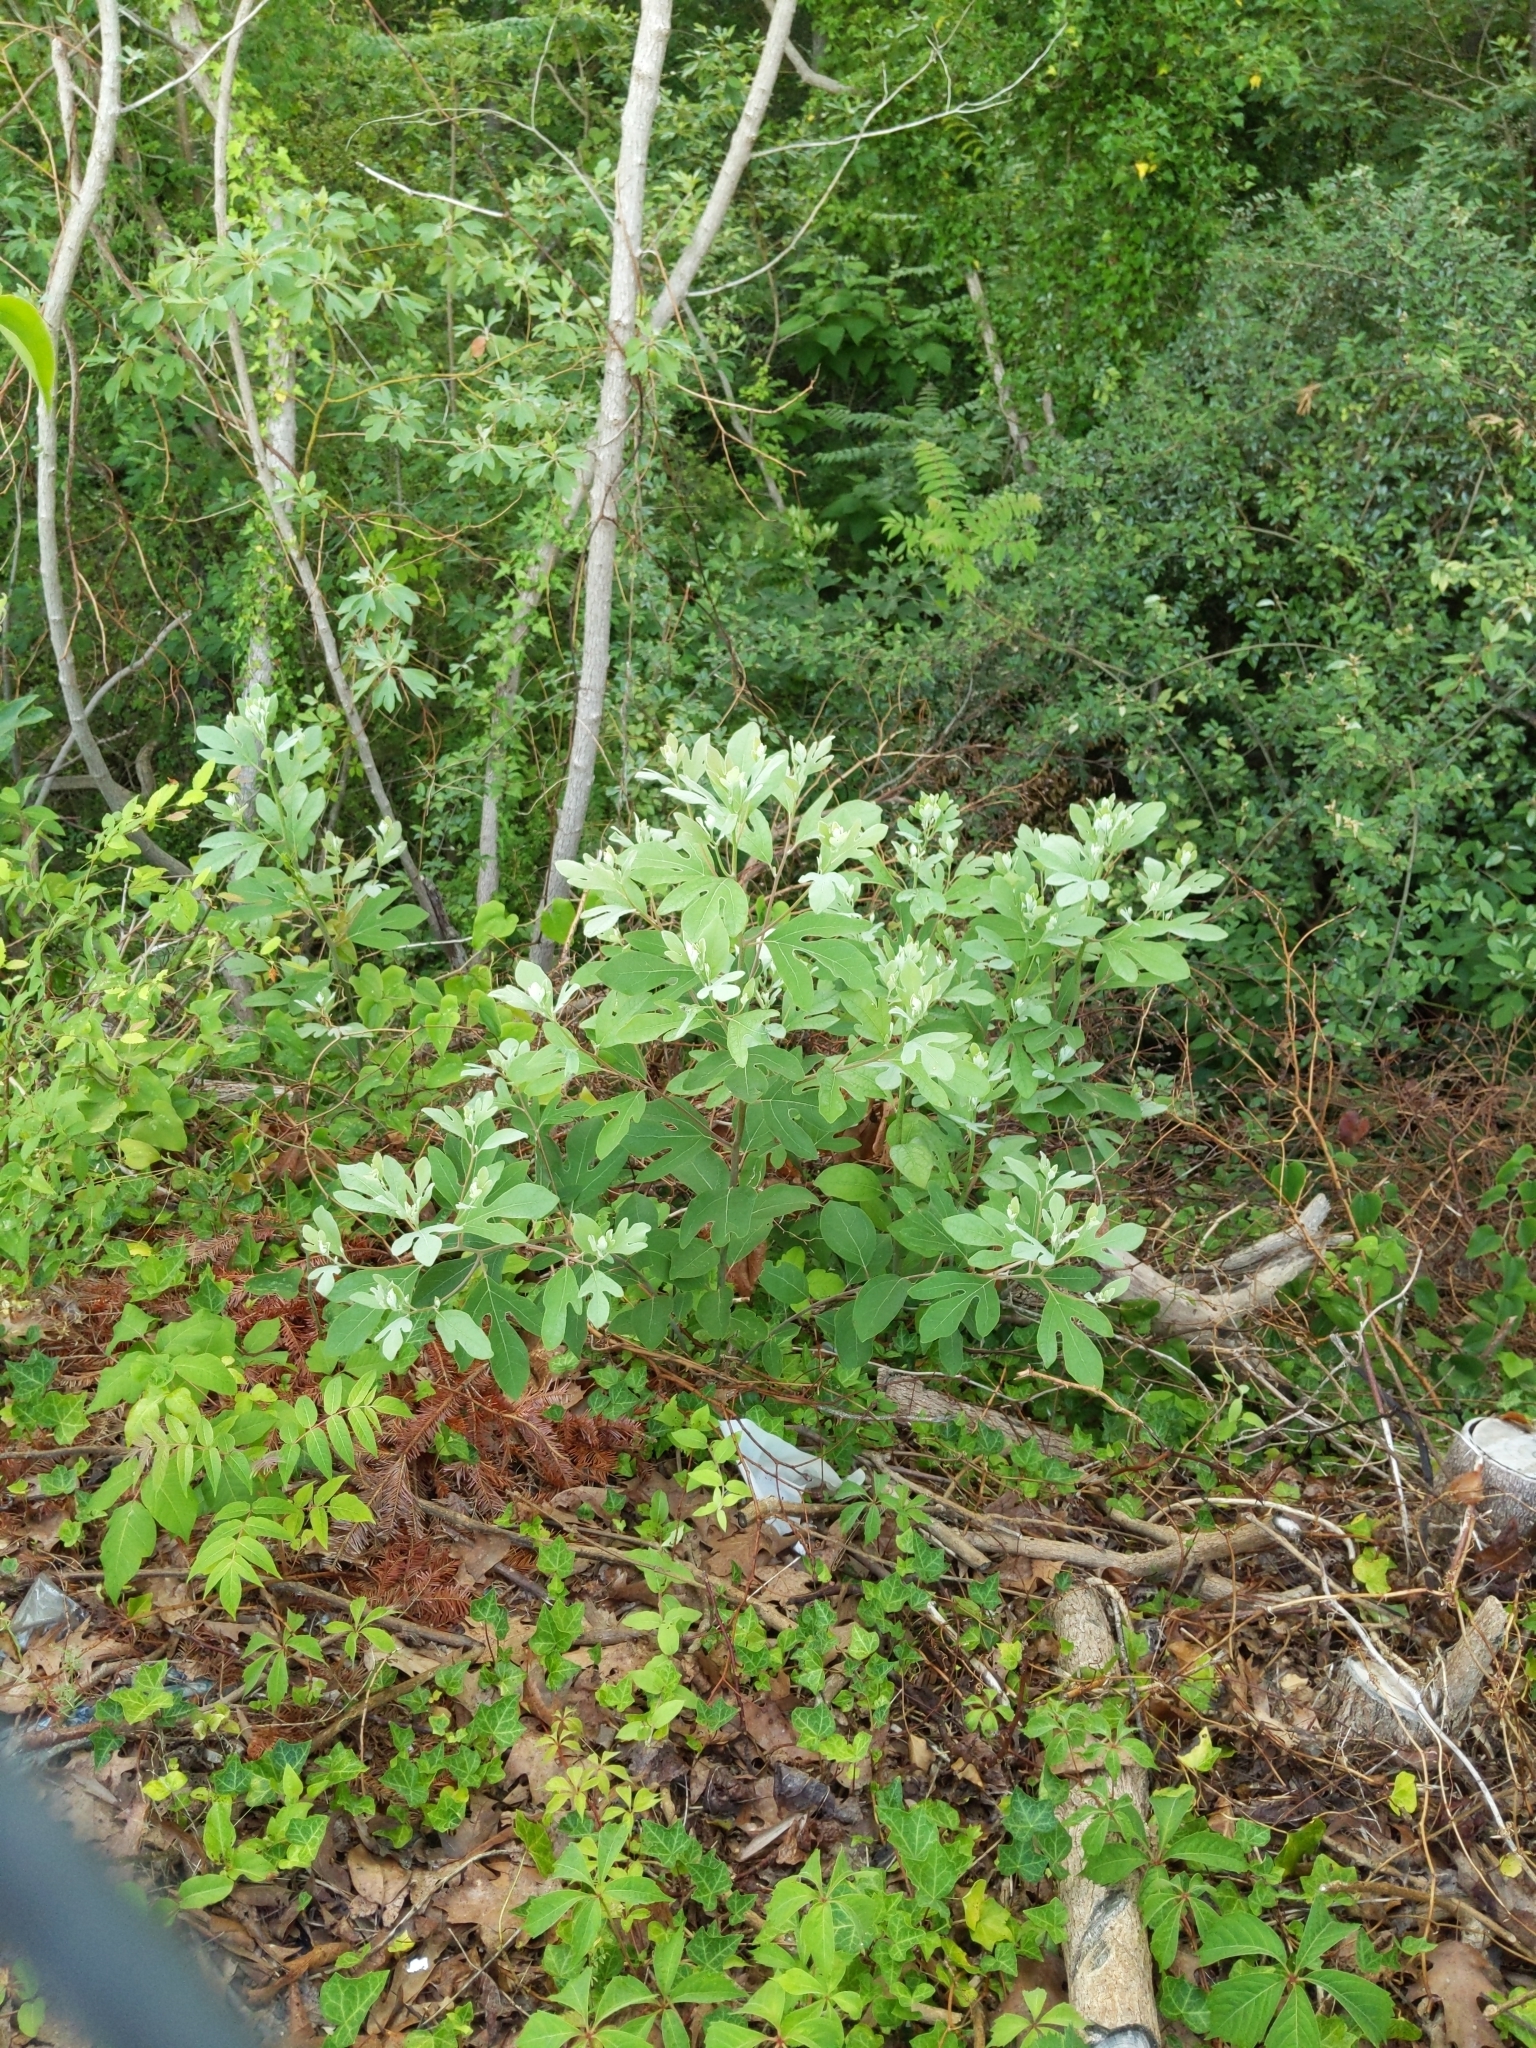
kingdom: Plantae
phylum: Tracheophyta
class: Magnoliopsida
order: Laurales
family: Lauraceae
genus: Sassafras
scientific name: Sassafras albidum
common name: Sassafras
